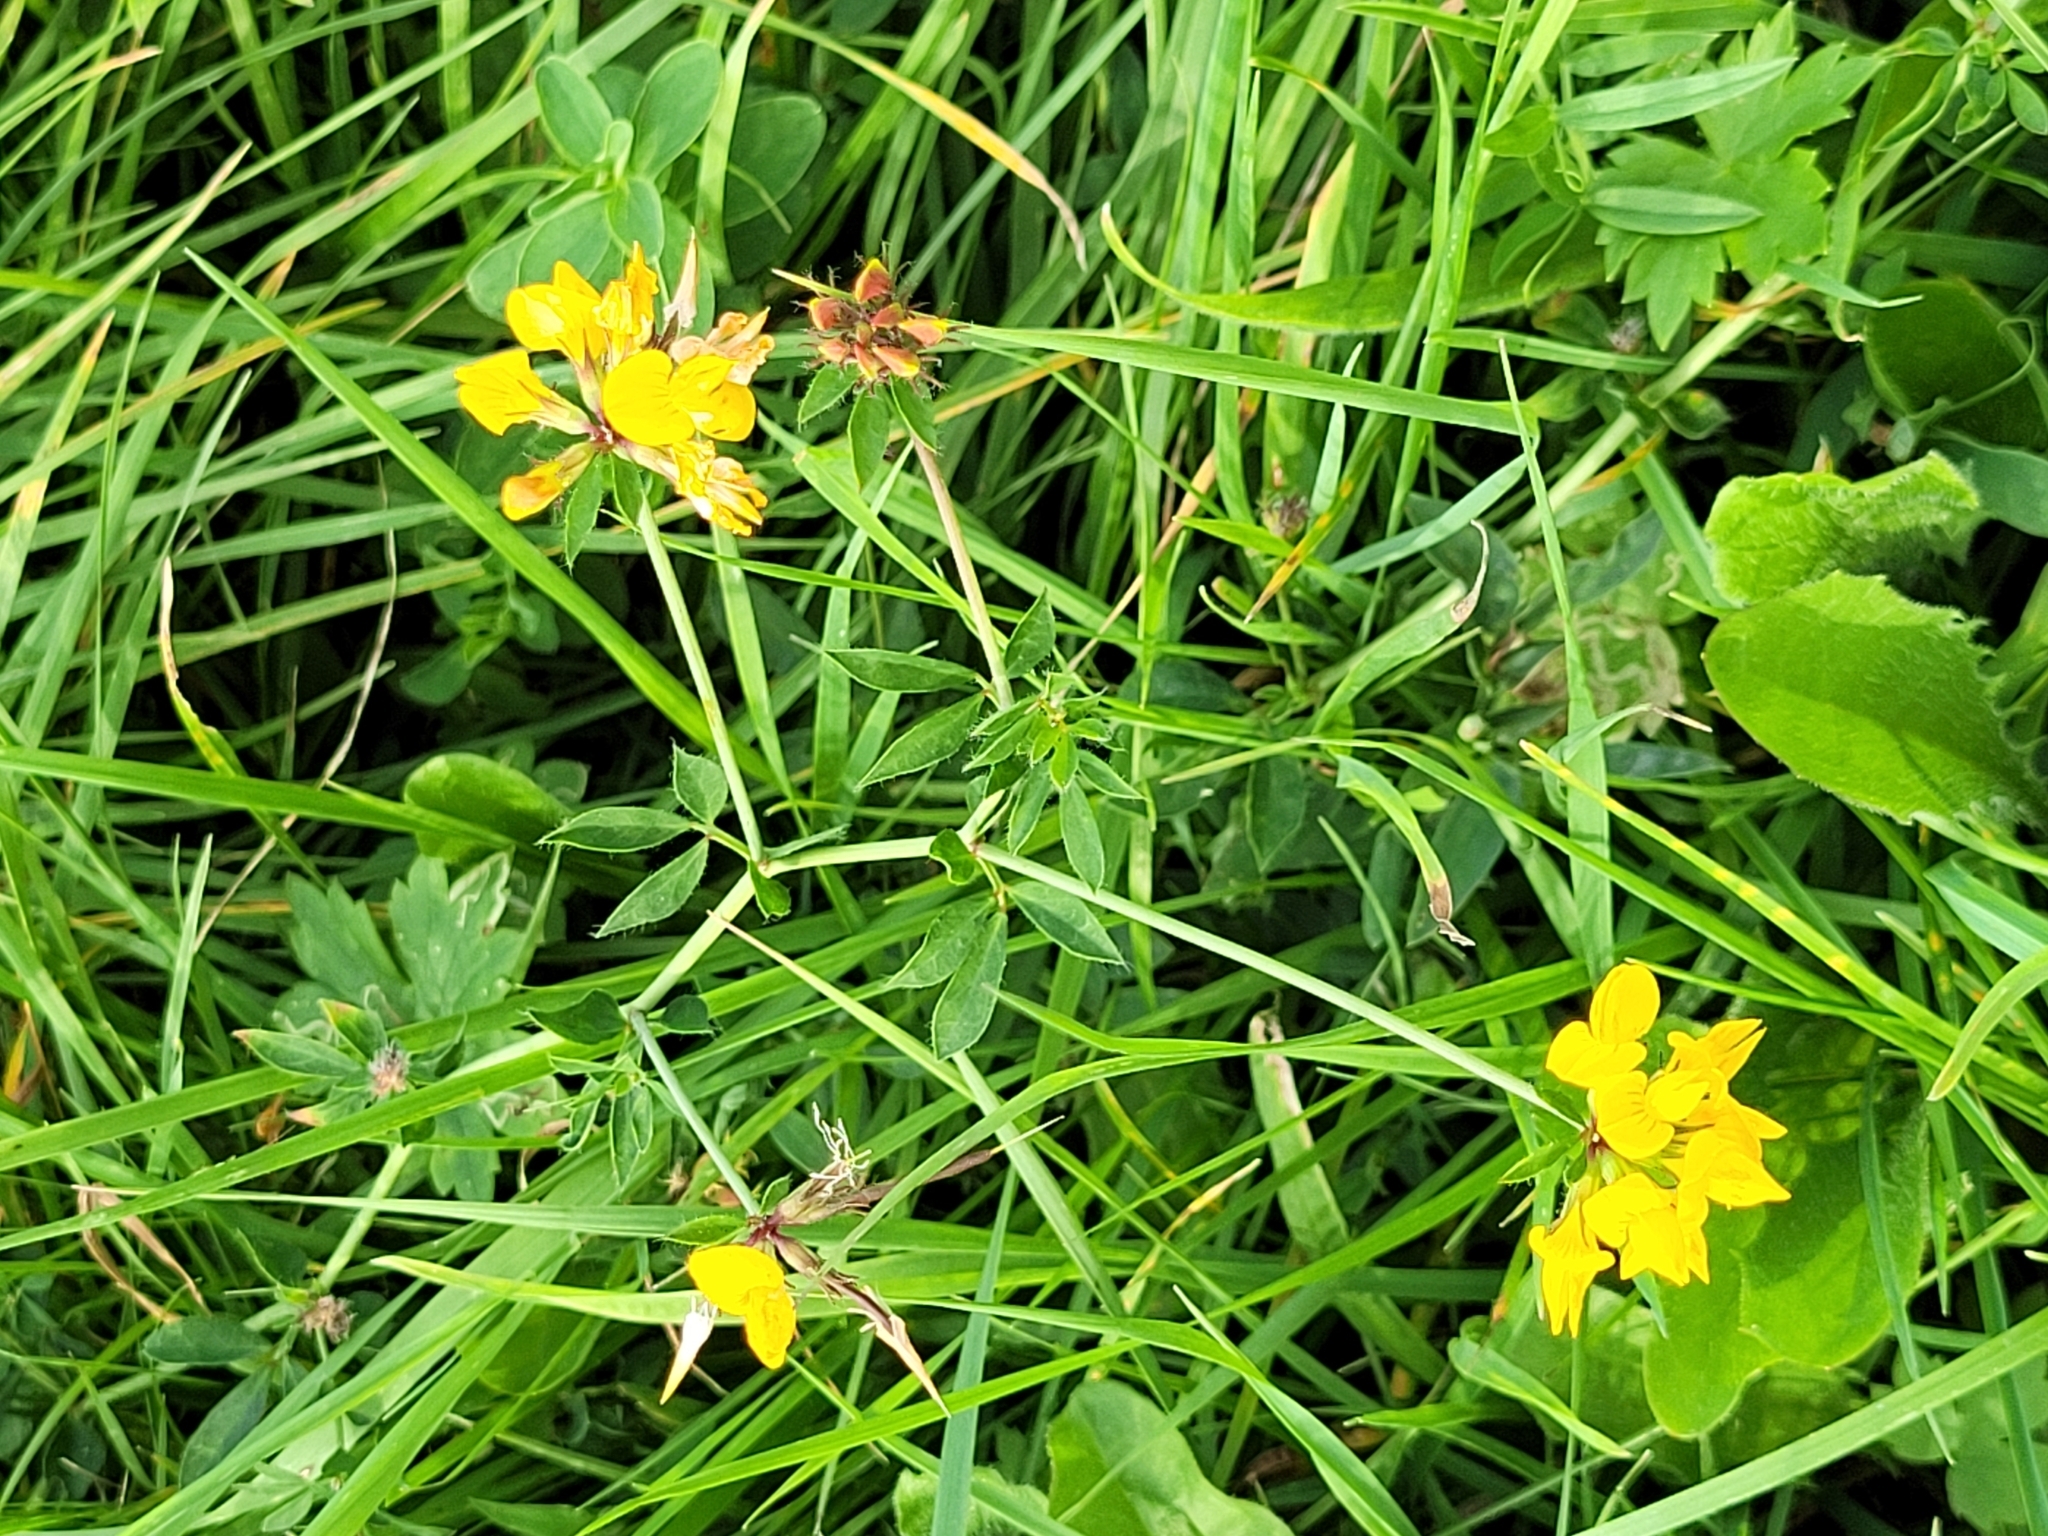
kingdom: Plantae
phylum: Tracheophyta
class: Magnoliopsida
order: Fabales
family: Fabaceae
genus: Lotus
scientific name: Lotus pedunculatus
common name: Greater birdsfoot-trefoil
